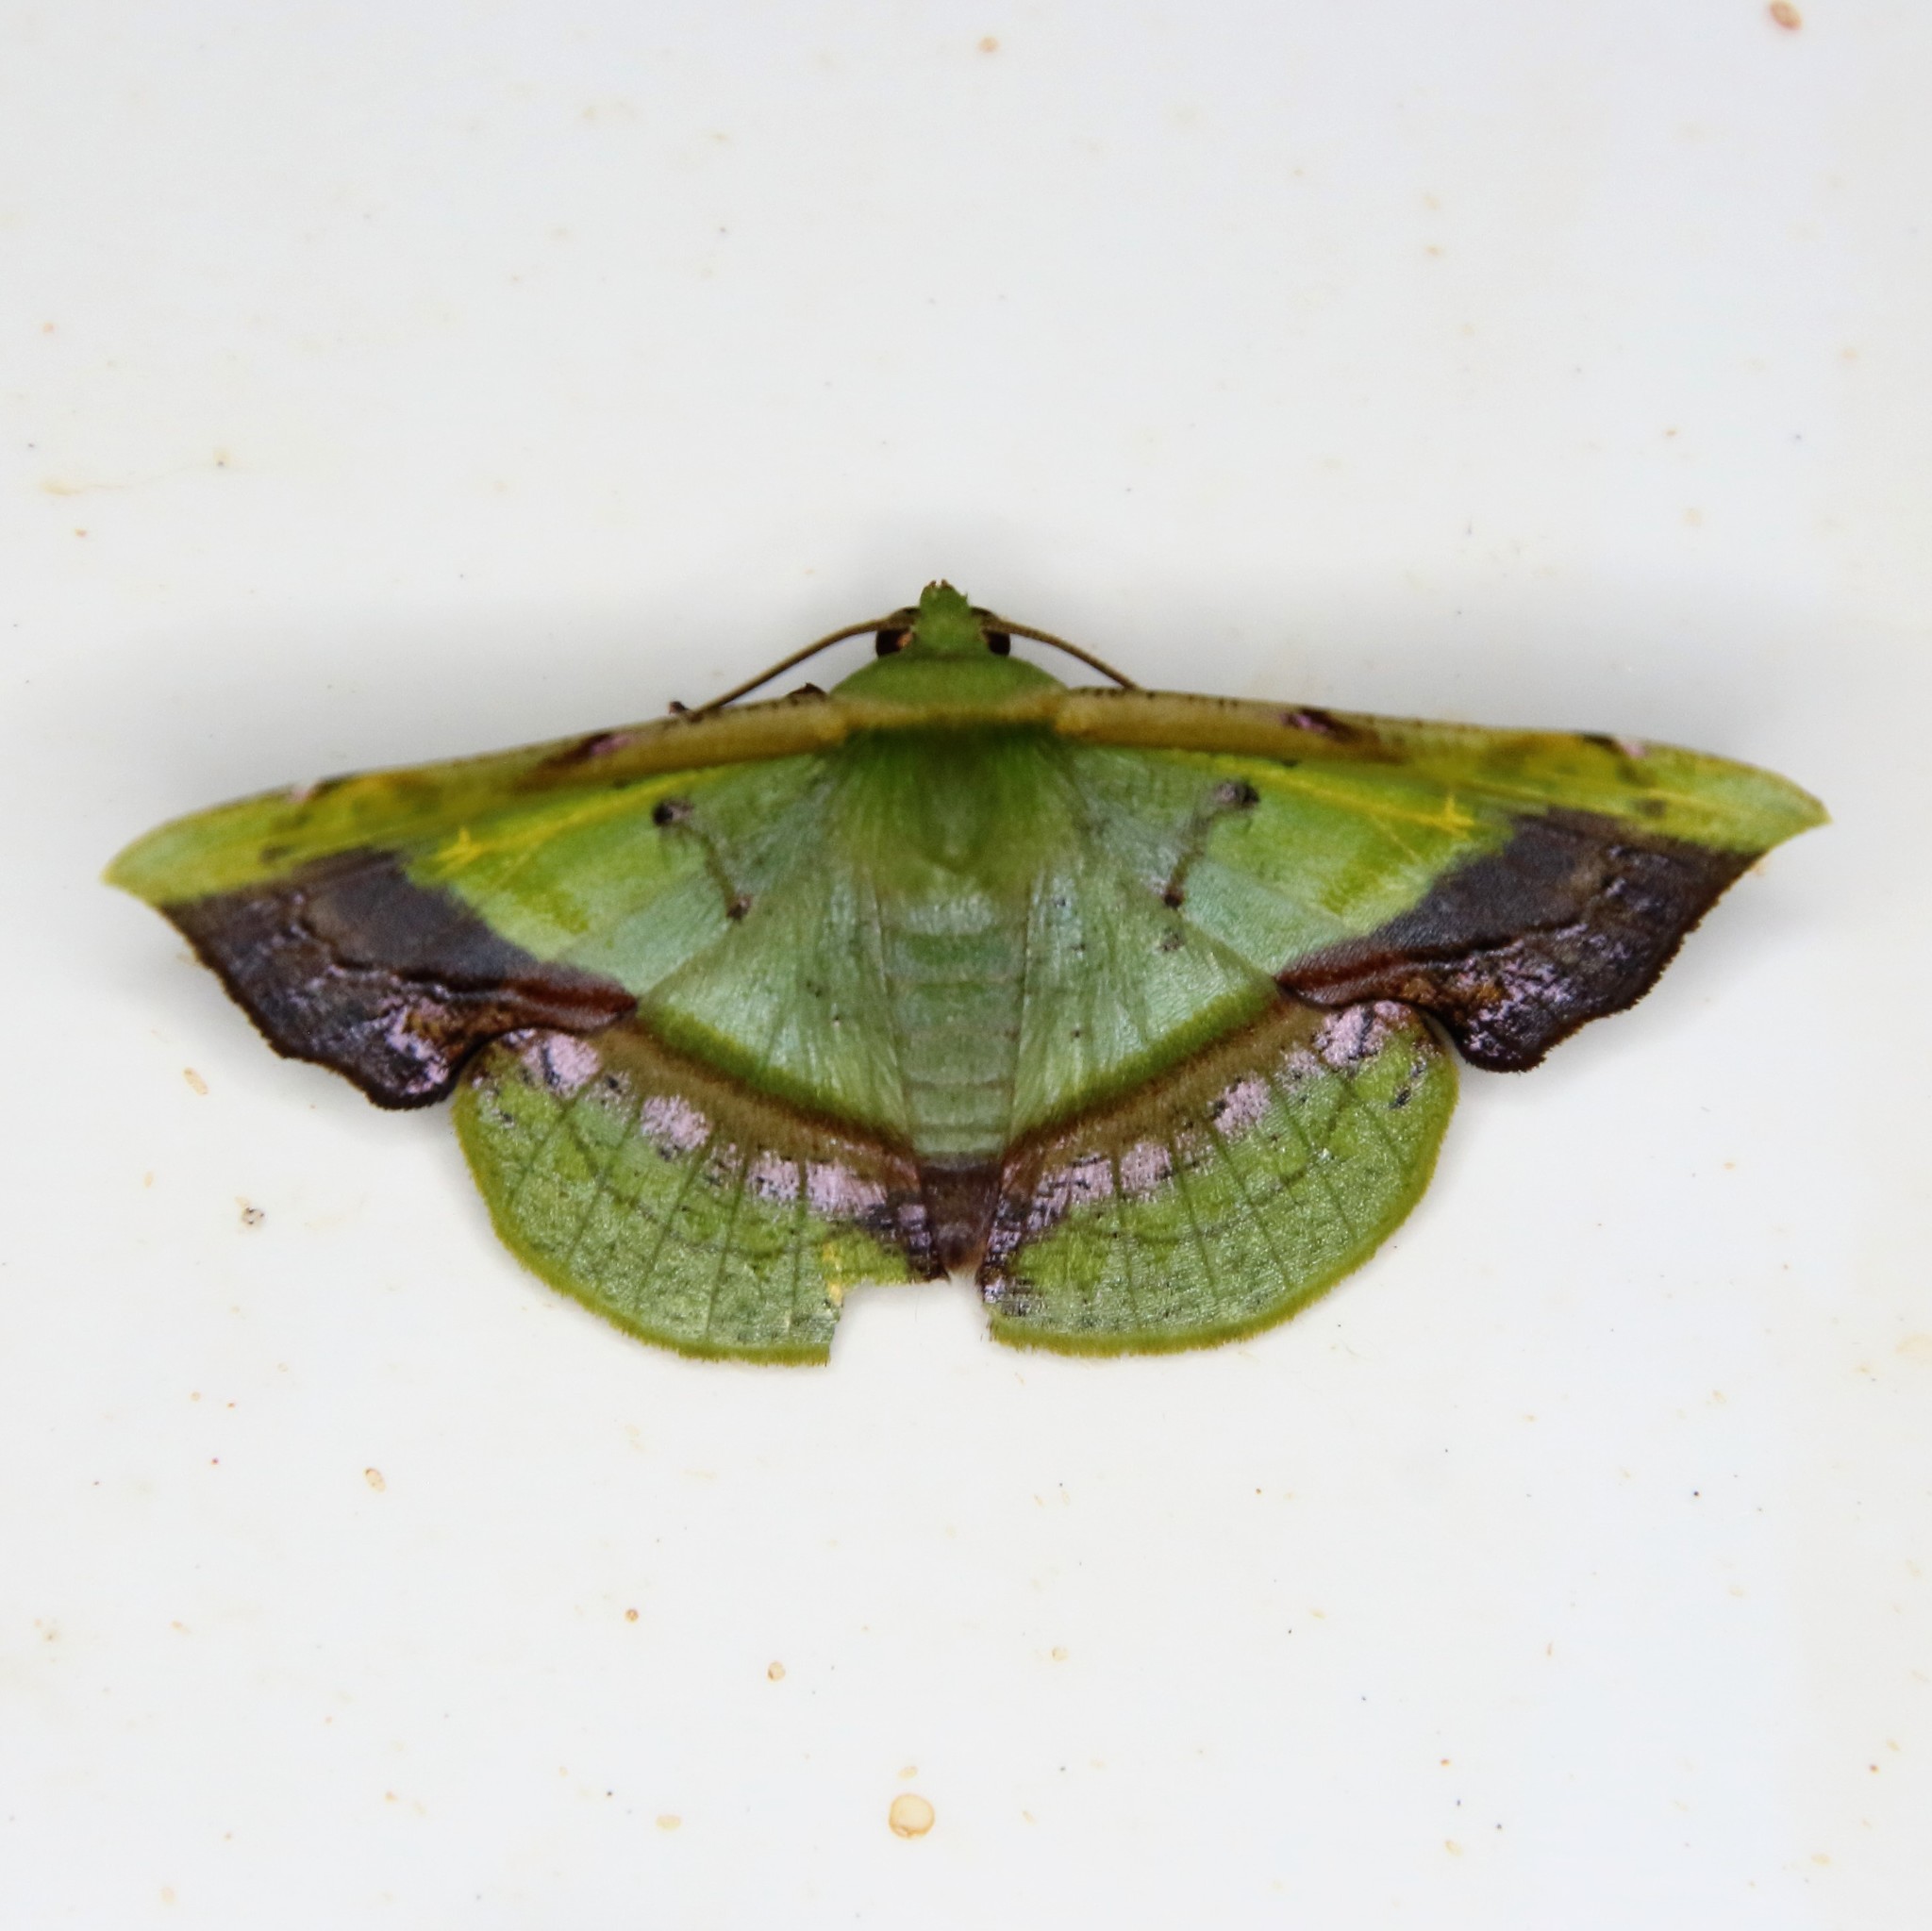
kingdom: Animalia
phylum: Arthropoda
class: Insecta
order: Lepidoptera
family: Geometridae
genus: Fascellina
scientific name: Fascellina plagiata
